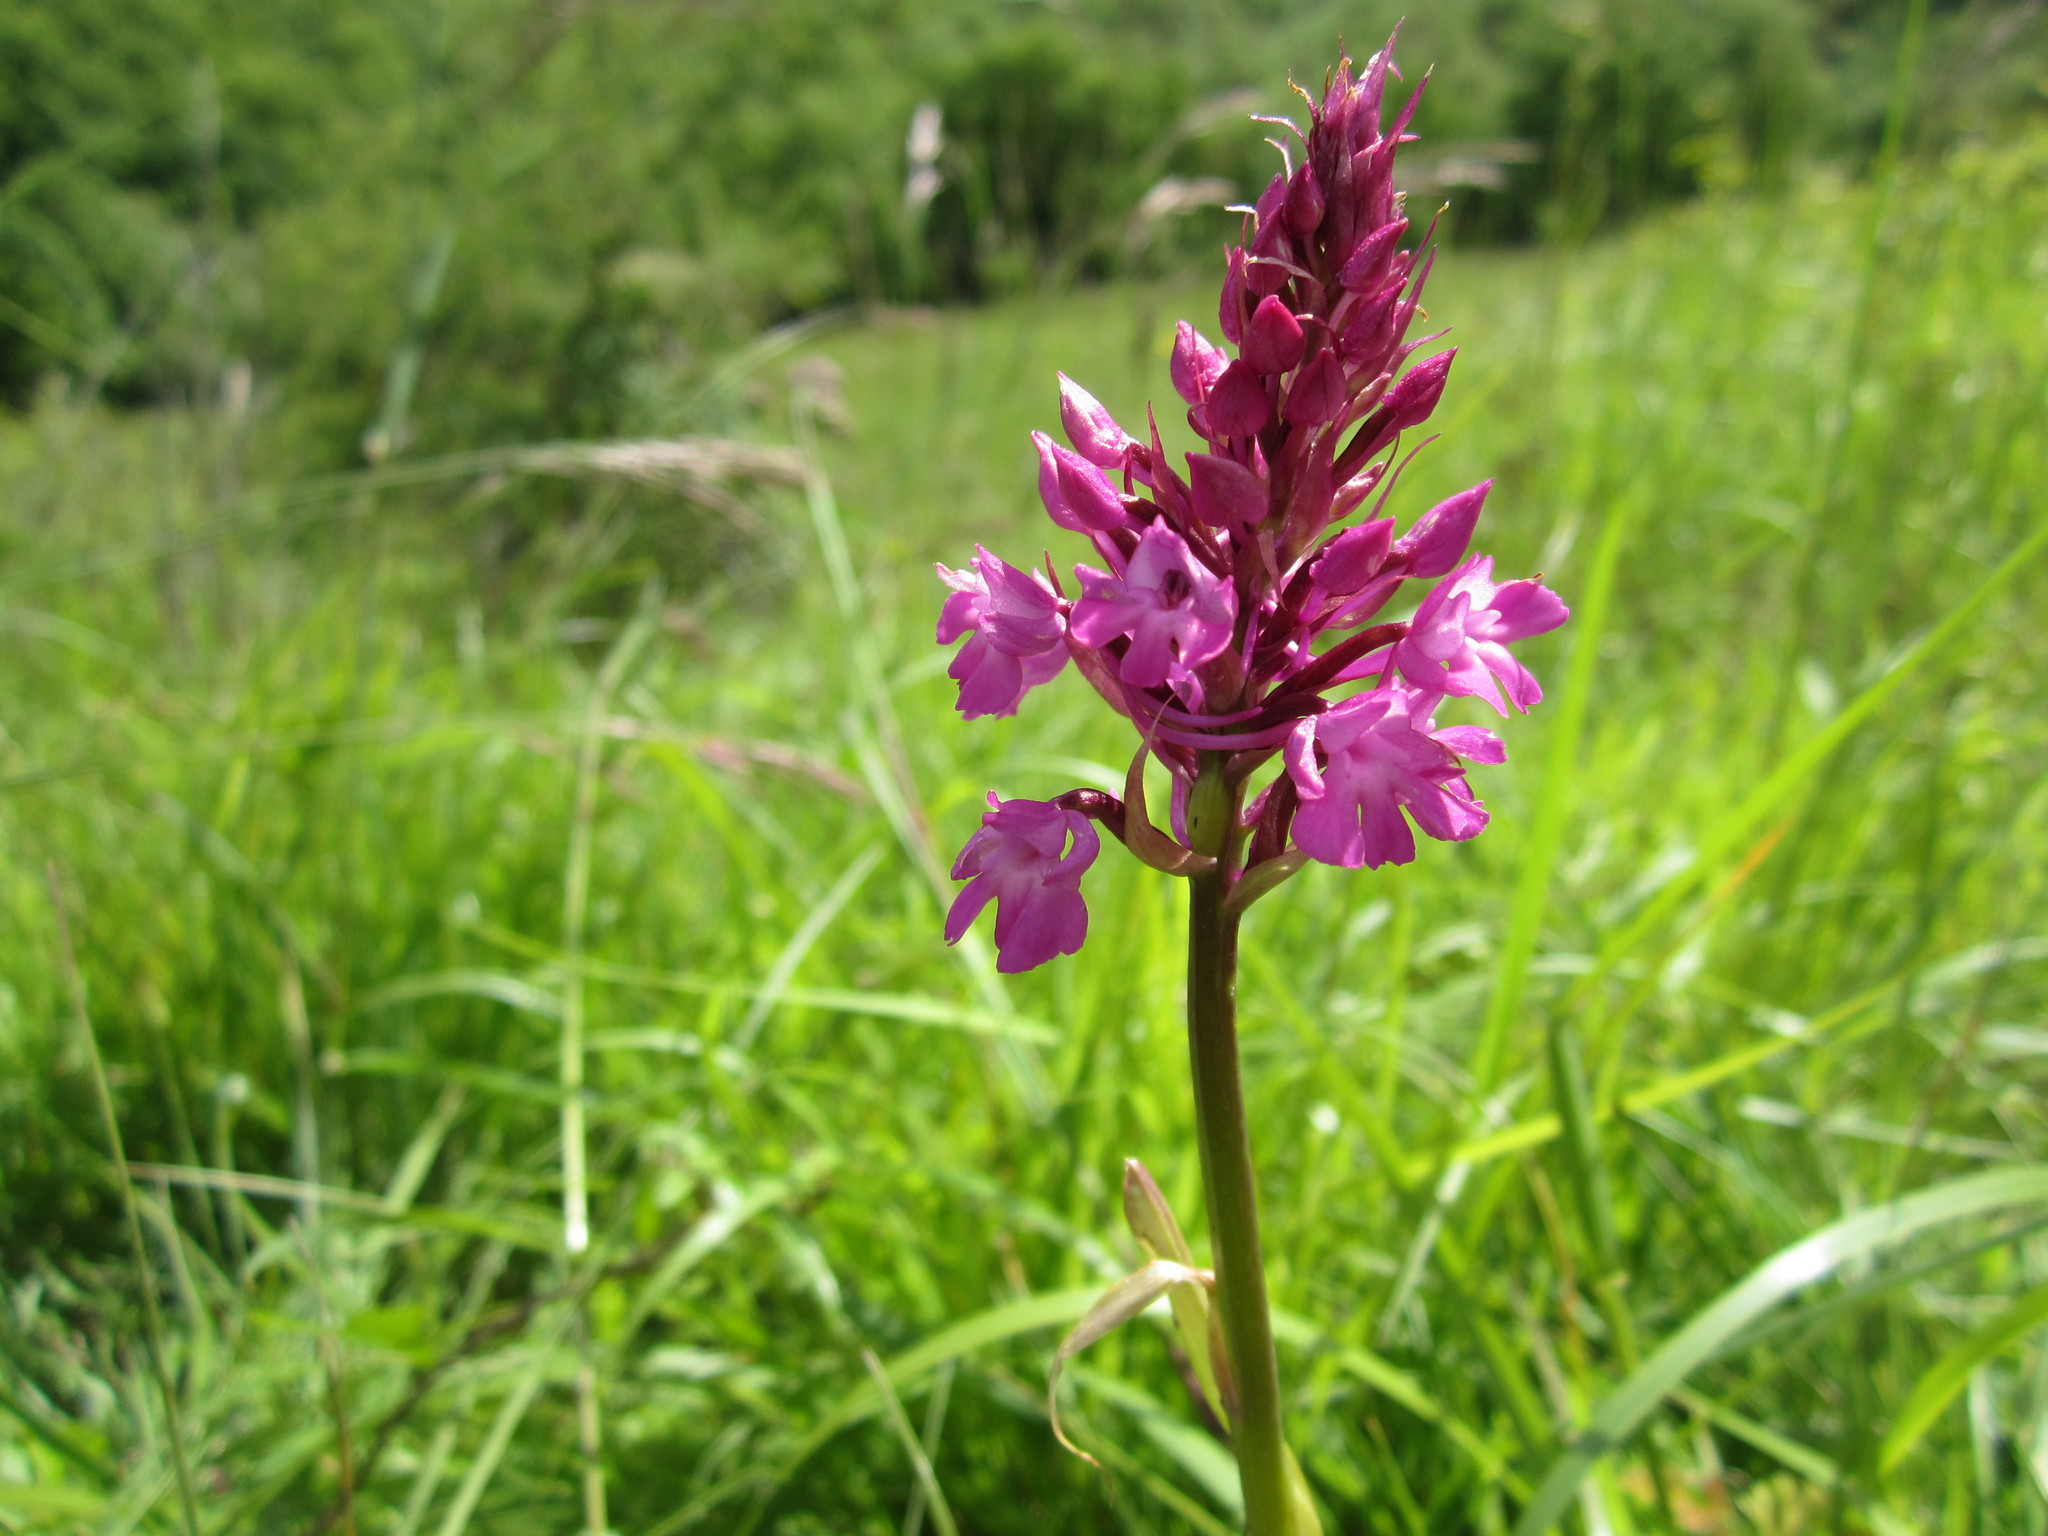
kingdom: Plantae
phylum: Tracheophyta
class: Liliopsida
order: Asparagales
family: Orchidaceae
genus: Anacamptis
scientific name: Anacamptis pyramidalis
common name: Pyramidal orchid
